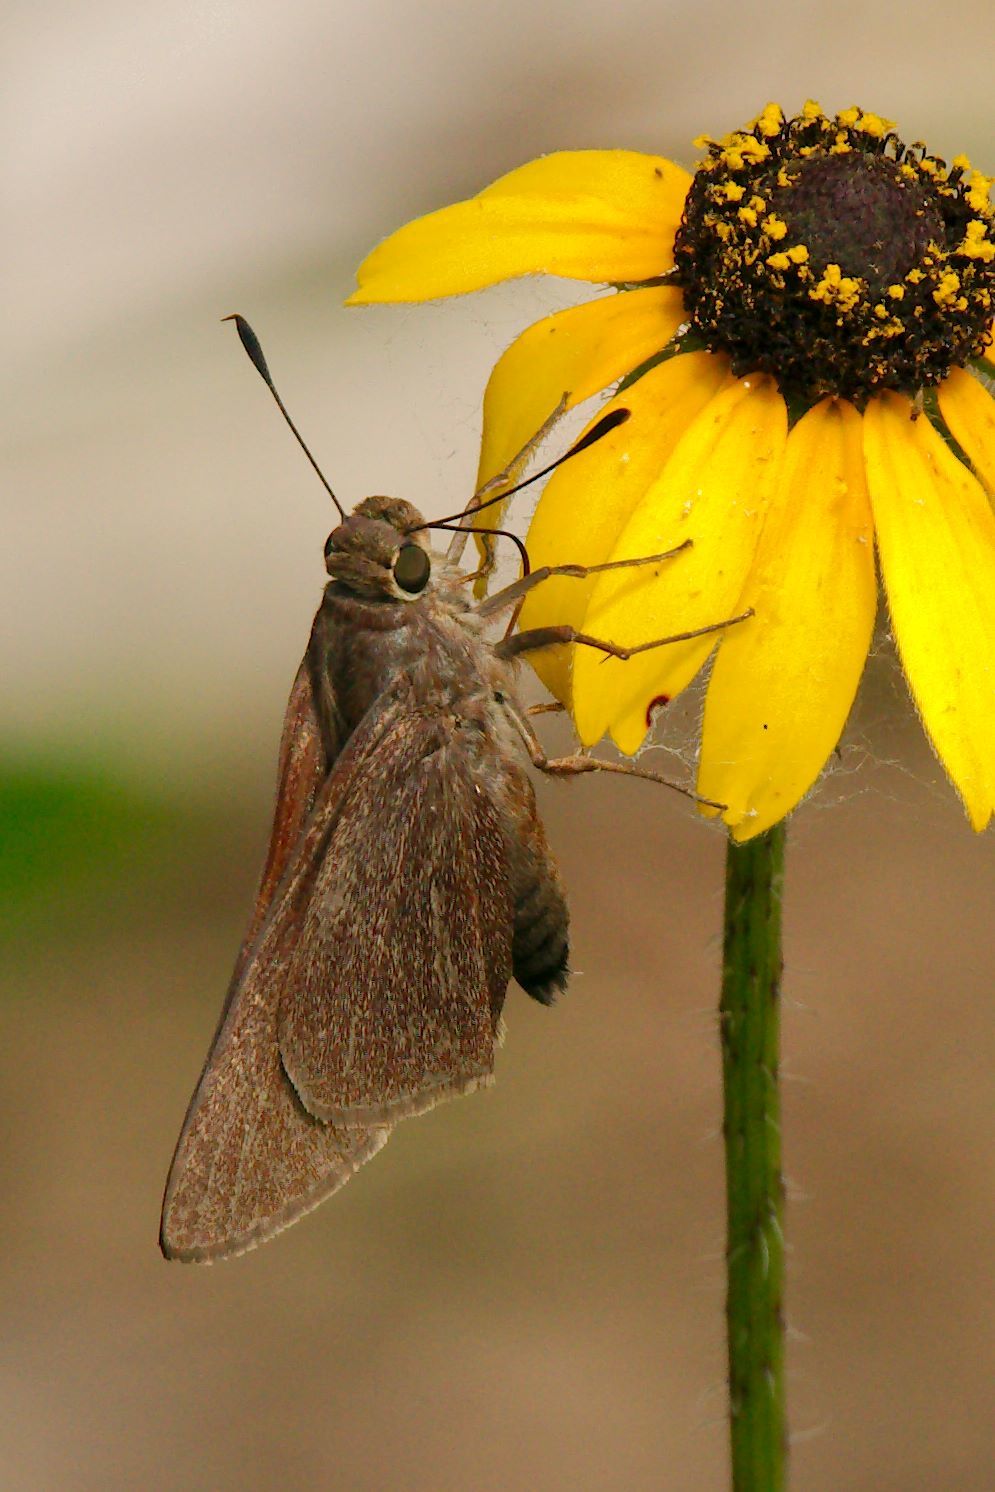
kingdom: Animalia
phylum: Arthropoda
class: Insecta
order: Lepidoptera
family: Hesperiidae
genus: Asbolis
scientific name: Asbolis capucinus
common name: Monk skipper
